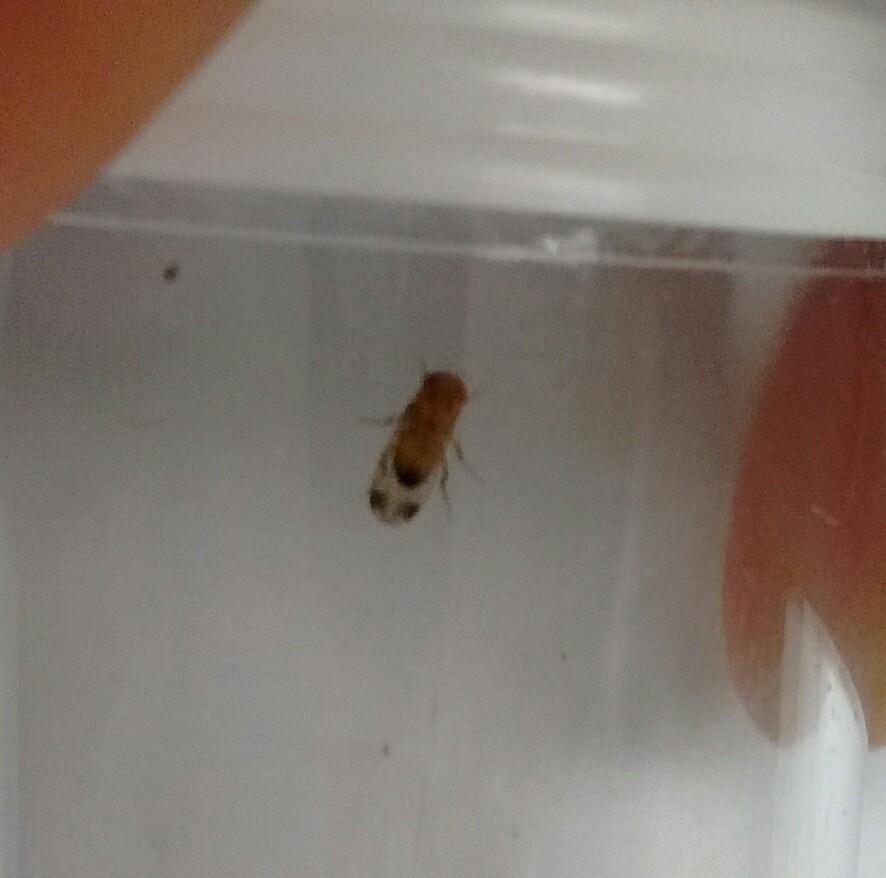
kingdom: Animalia
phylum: Arthropoda
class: Insecta
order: Diptera
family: Drosophilidae
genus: Drosophila
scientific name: Drosophila suzukii
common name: Spotted-wing drosophila
